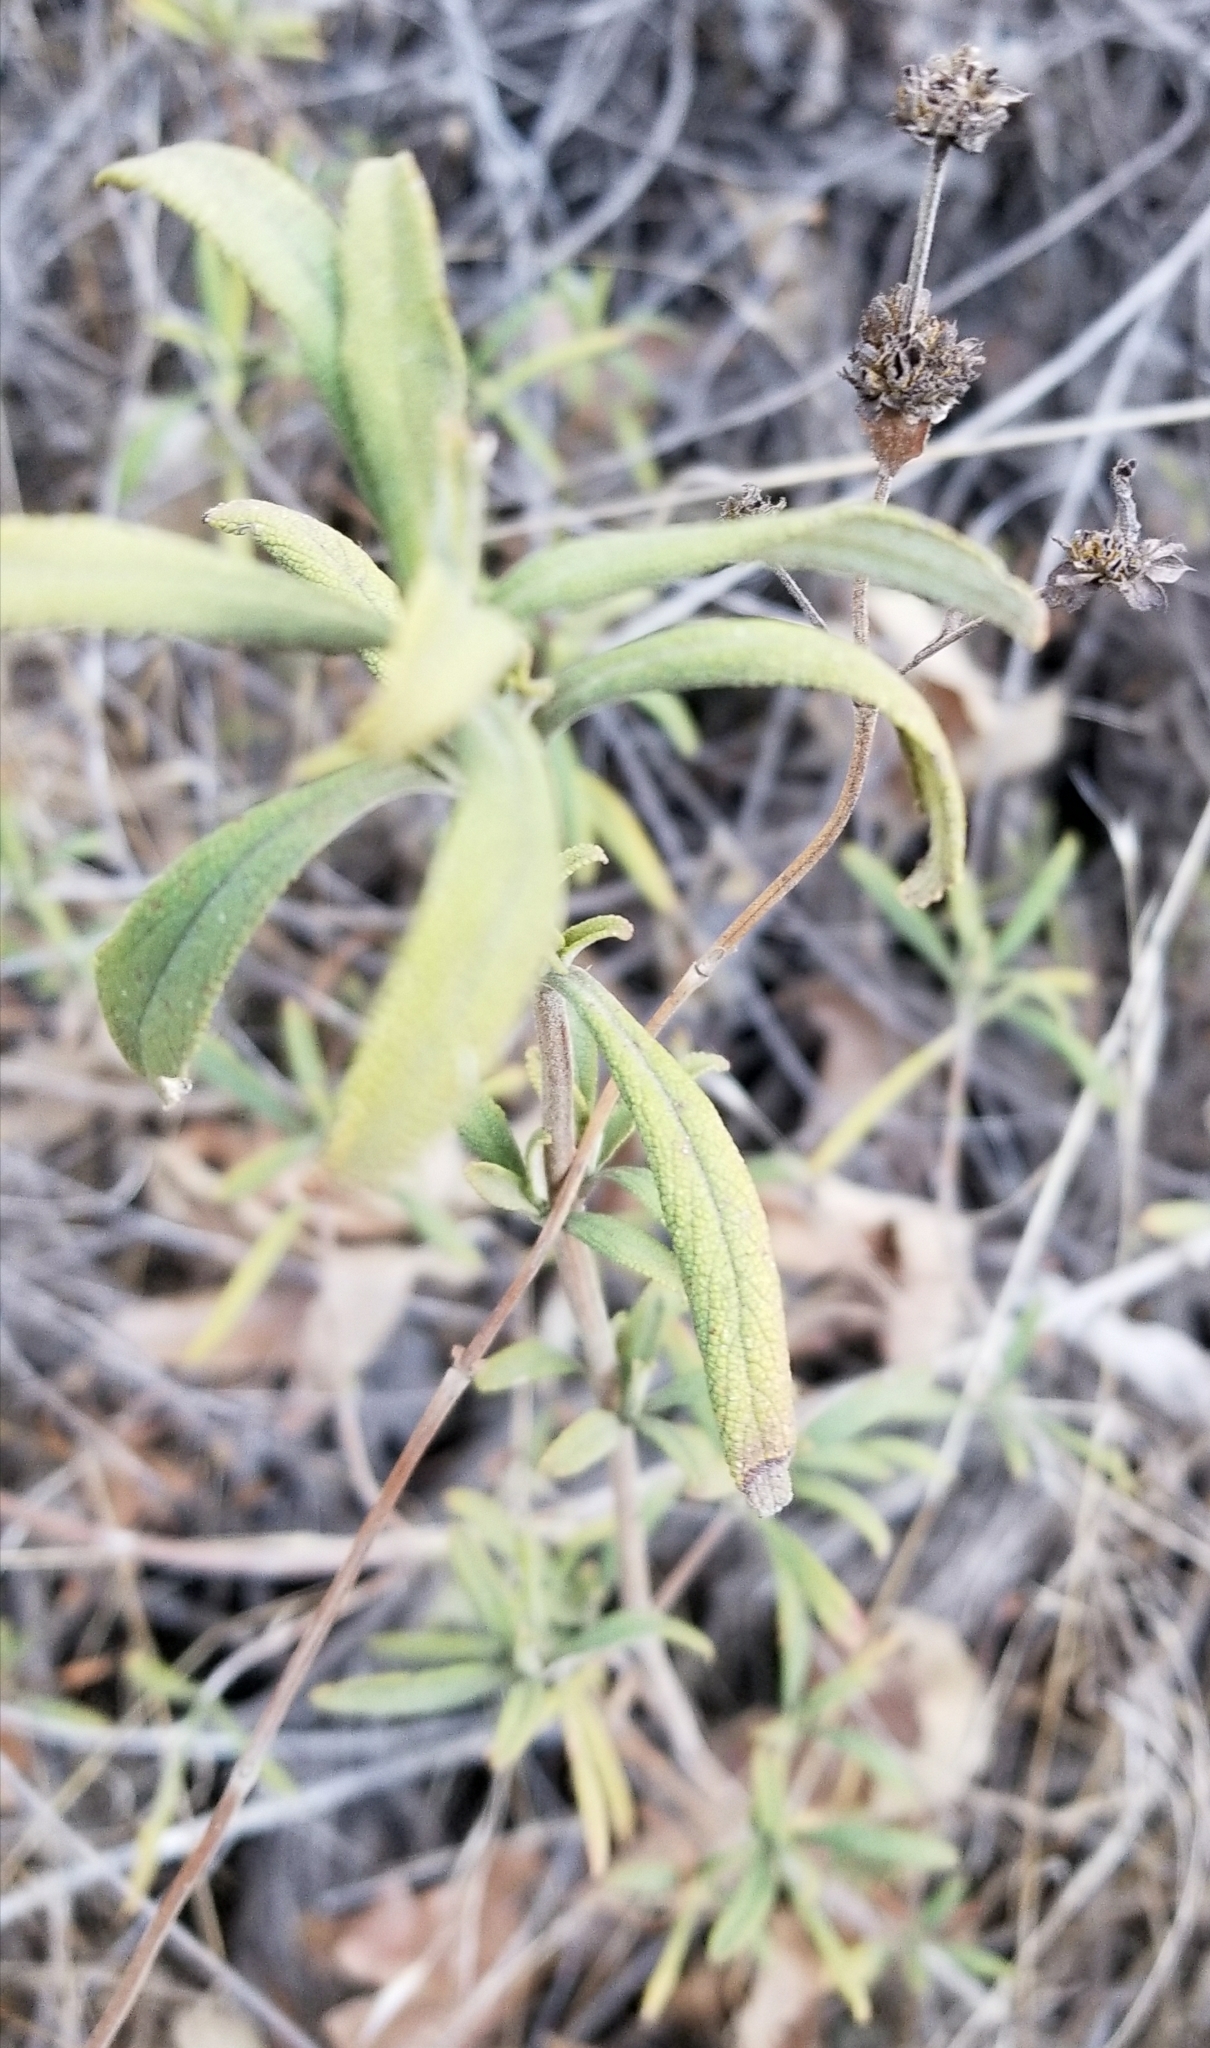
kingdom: Plantae
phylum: Tracheophyta
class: Magnoliopsida
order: Lamiales
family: Lamiaceae
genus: Salvia
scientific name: Salvia mellifera
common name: Black sage
